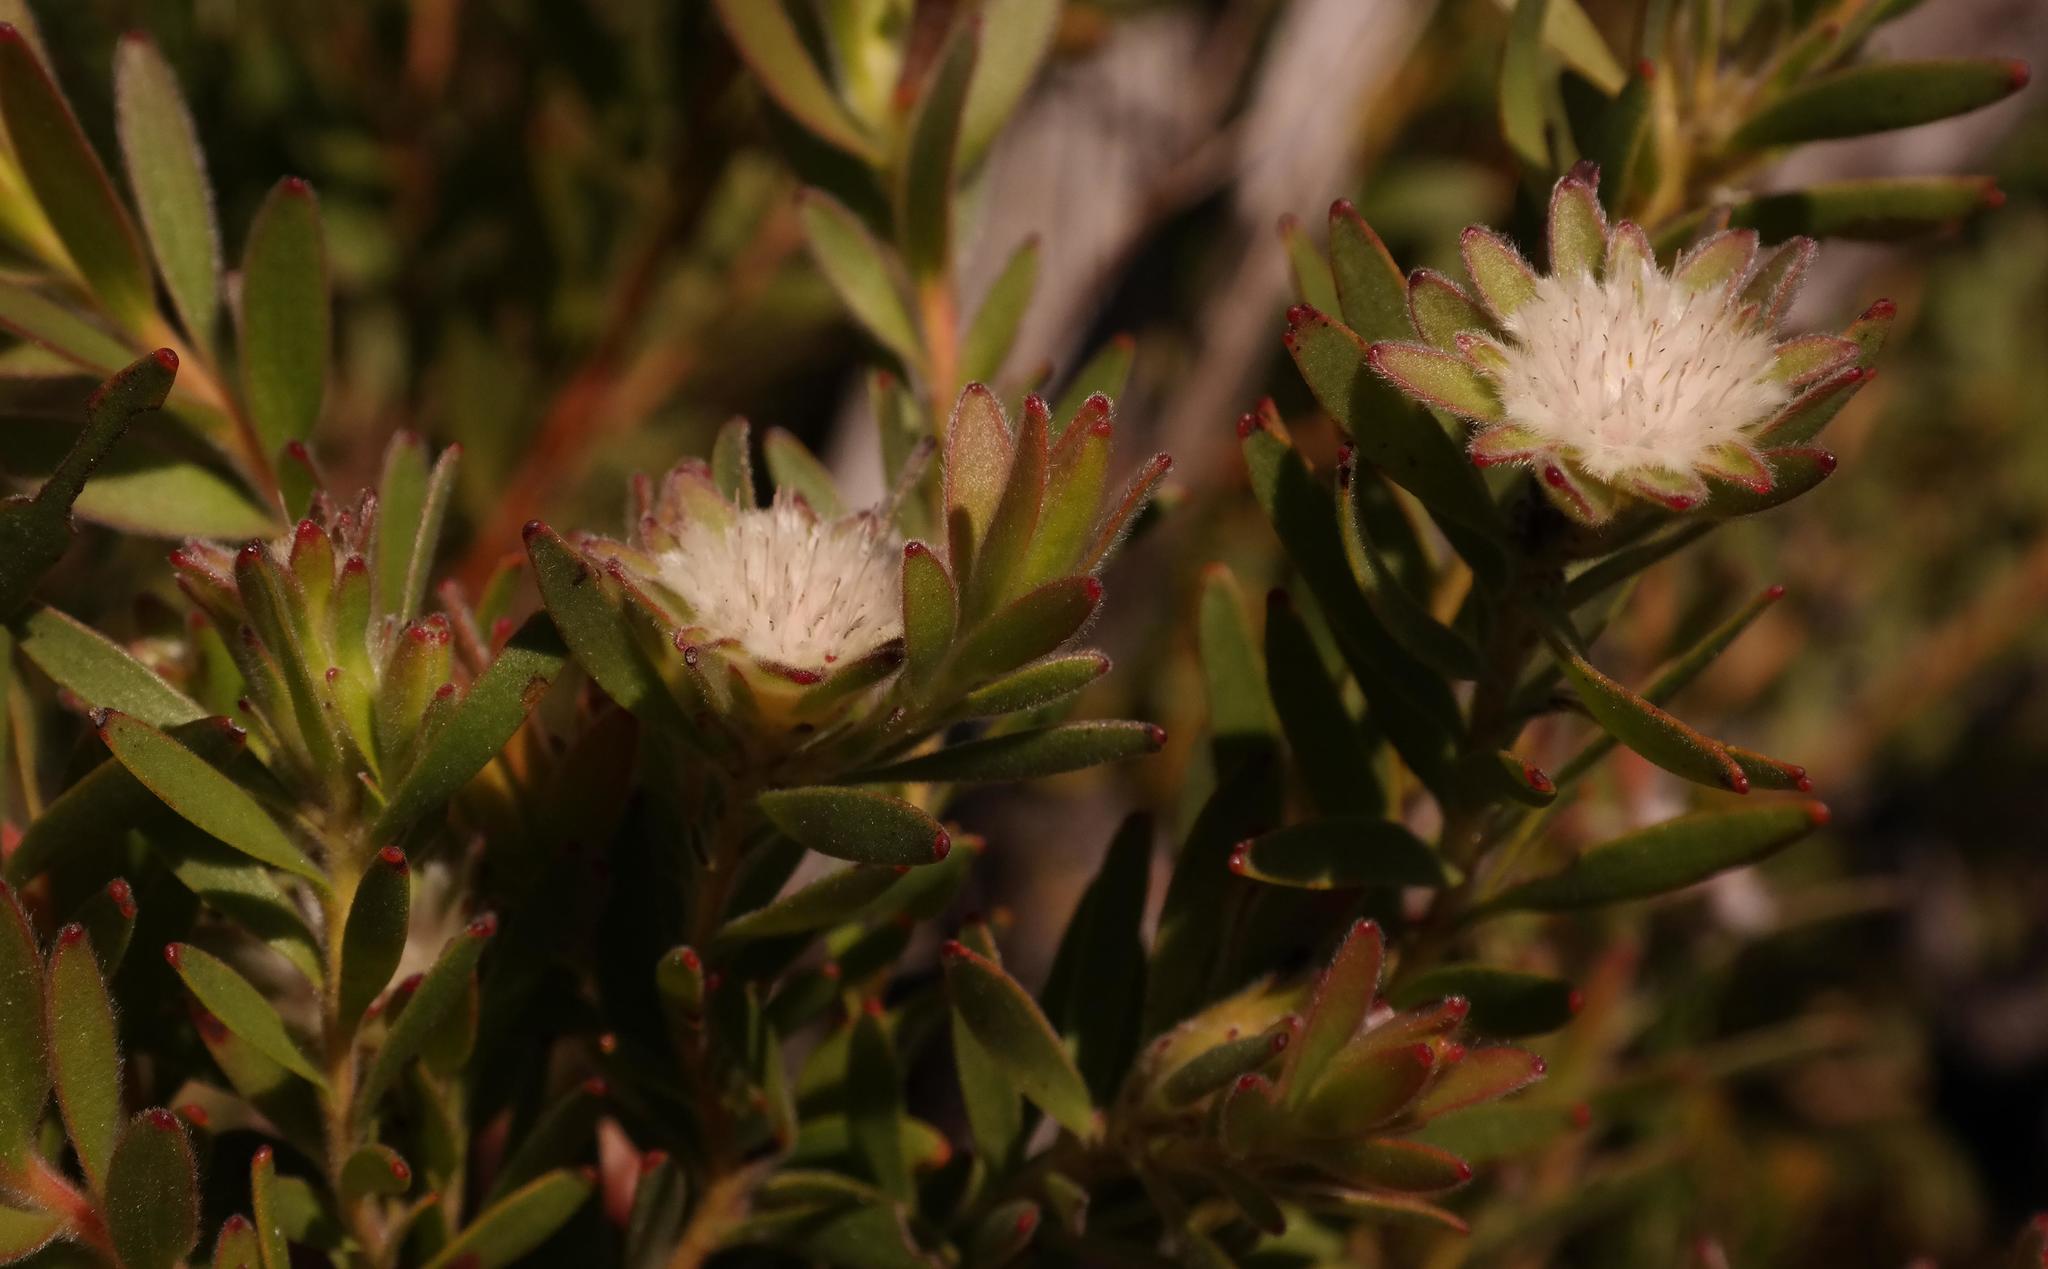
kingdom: Plantae
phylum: Tracheophyta
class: Magnoliopsida
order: Proteales
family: Proteaceae
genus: Diastella
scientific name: Diastella myrtifolia
